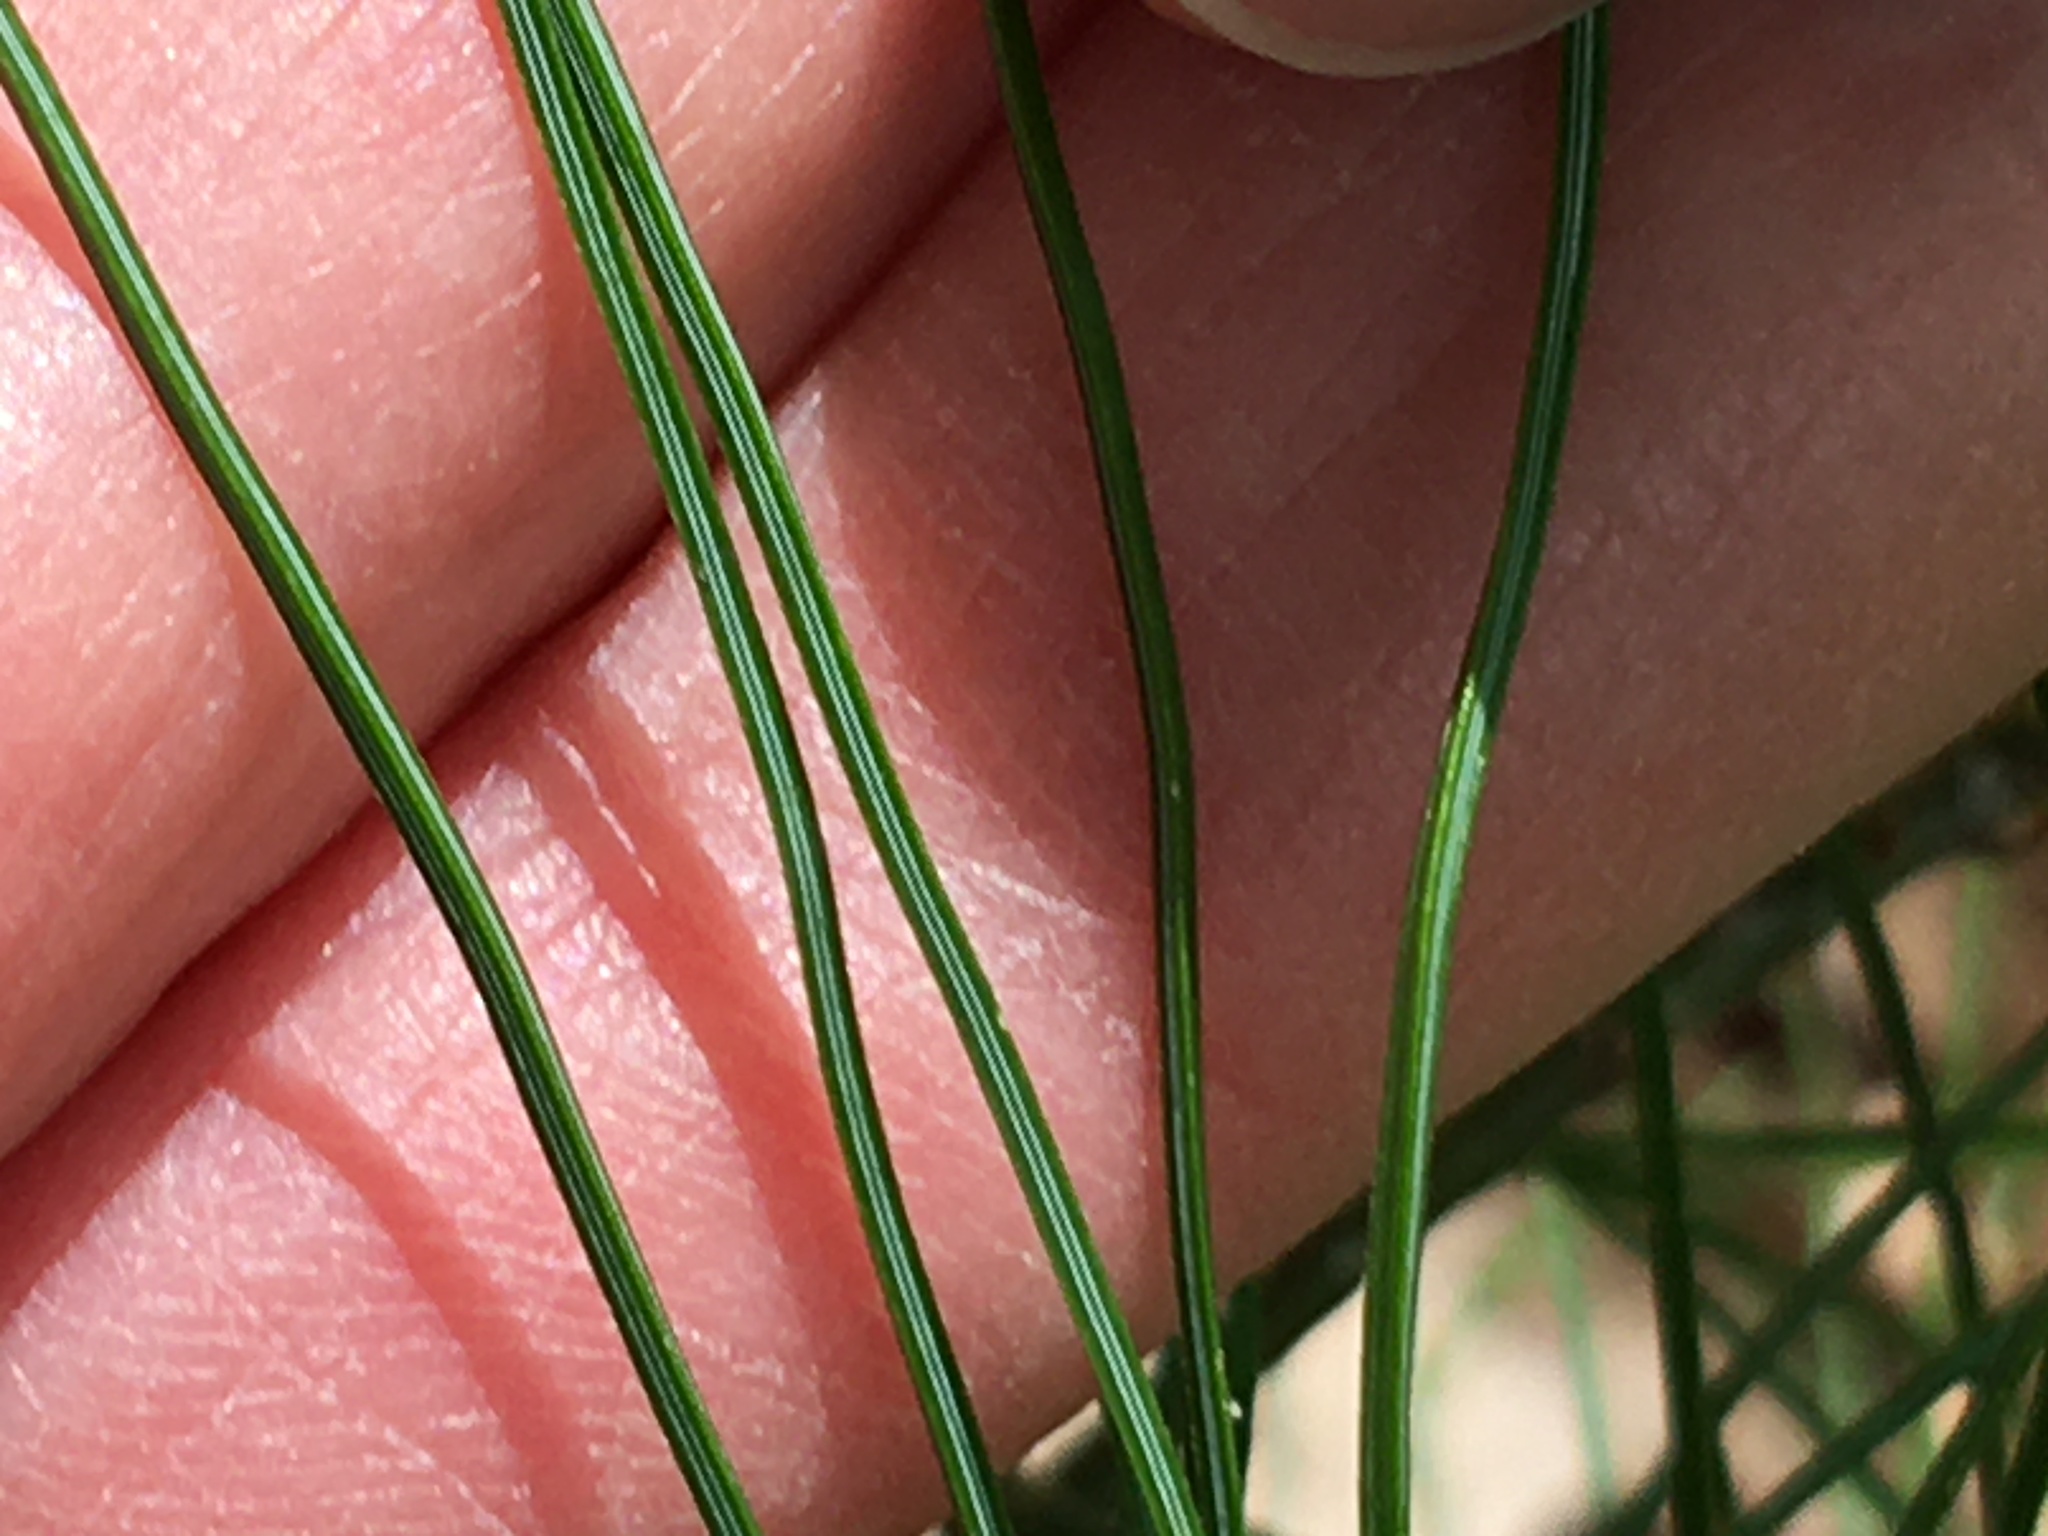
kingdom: Plantae
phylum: Tracheophyta
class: Pinopsida
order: Pinales
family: Pinaceae
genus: Pinus
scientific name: Pinus strobus
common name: Weymouth pine
